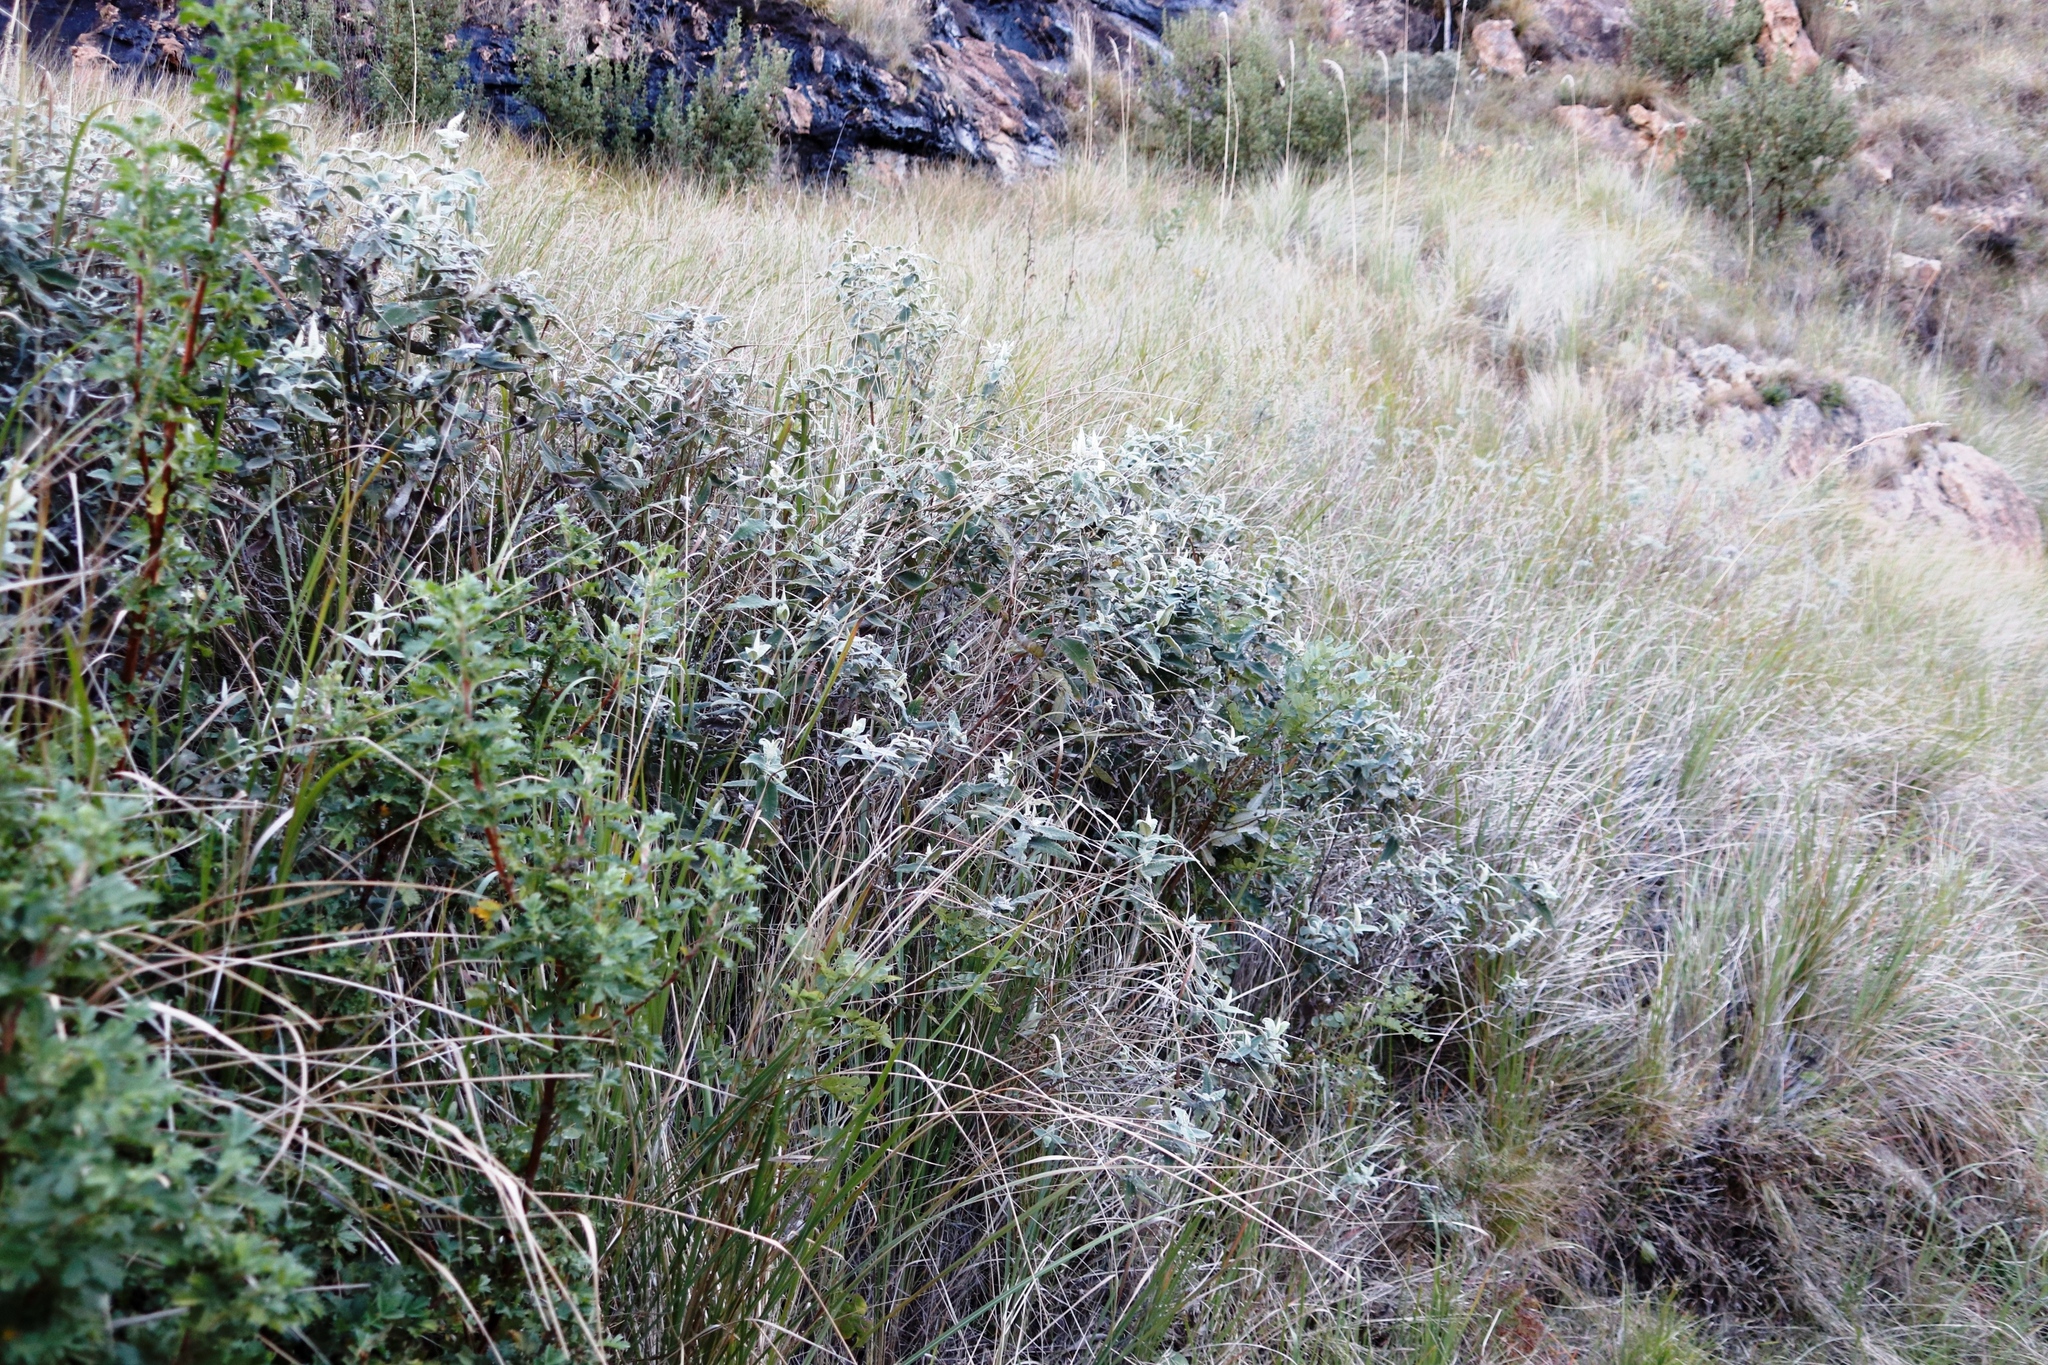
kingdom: Plantae
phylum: Tracheophyta
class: Magnoliopsida
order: Lamiales
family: Scrophulariaceae
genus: Buddleja
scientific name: Buddleja salviifolia
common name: Sagewood
